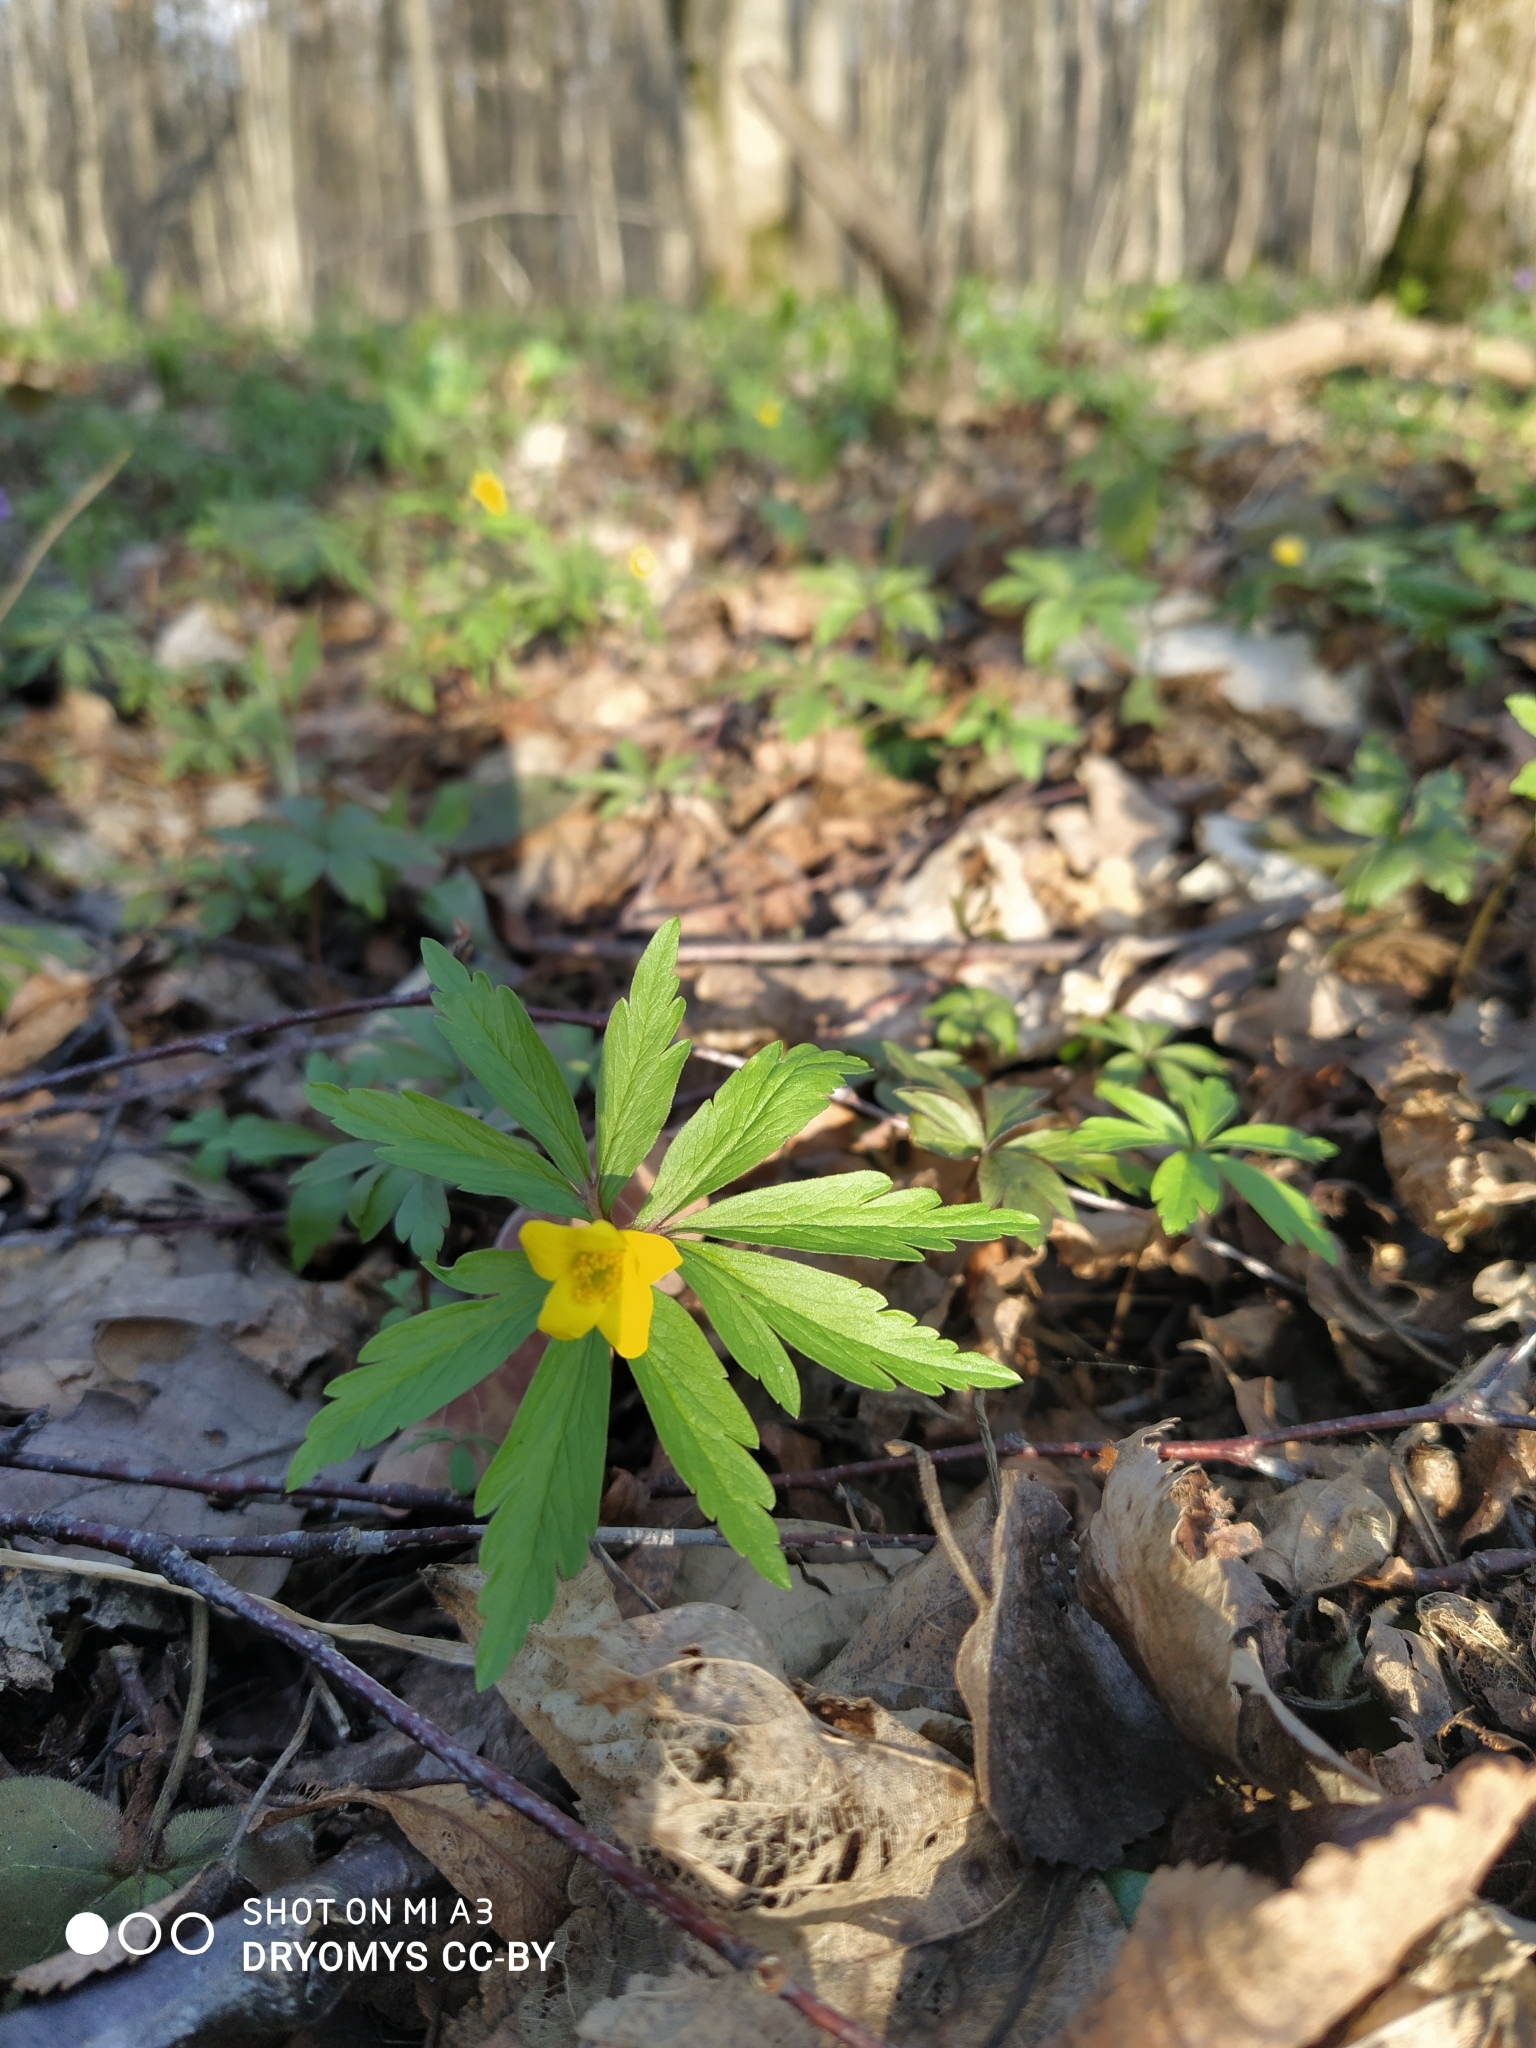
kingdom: Plantae
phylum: Tracheophyta
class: Magnoliopsida
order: Ranunculales
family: Ranunculaceae
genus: Anemone
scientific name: Anemone ranunculoides
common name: Yellow anemone
